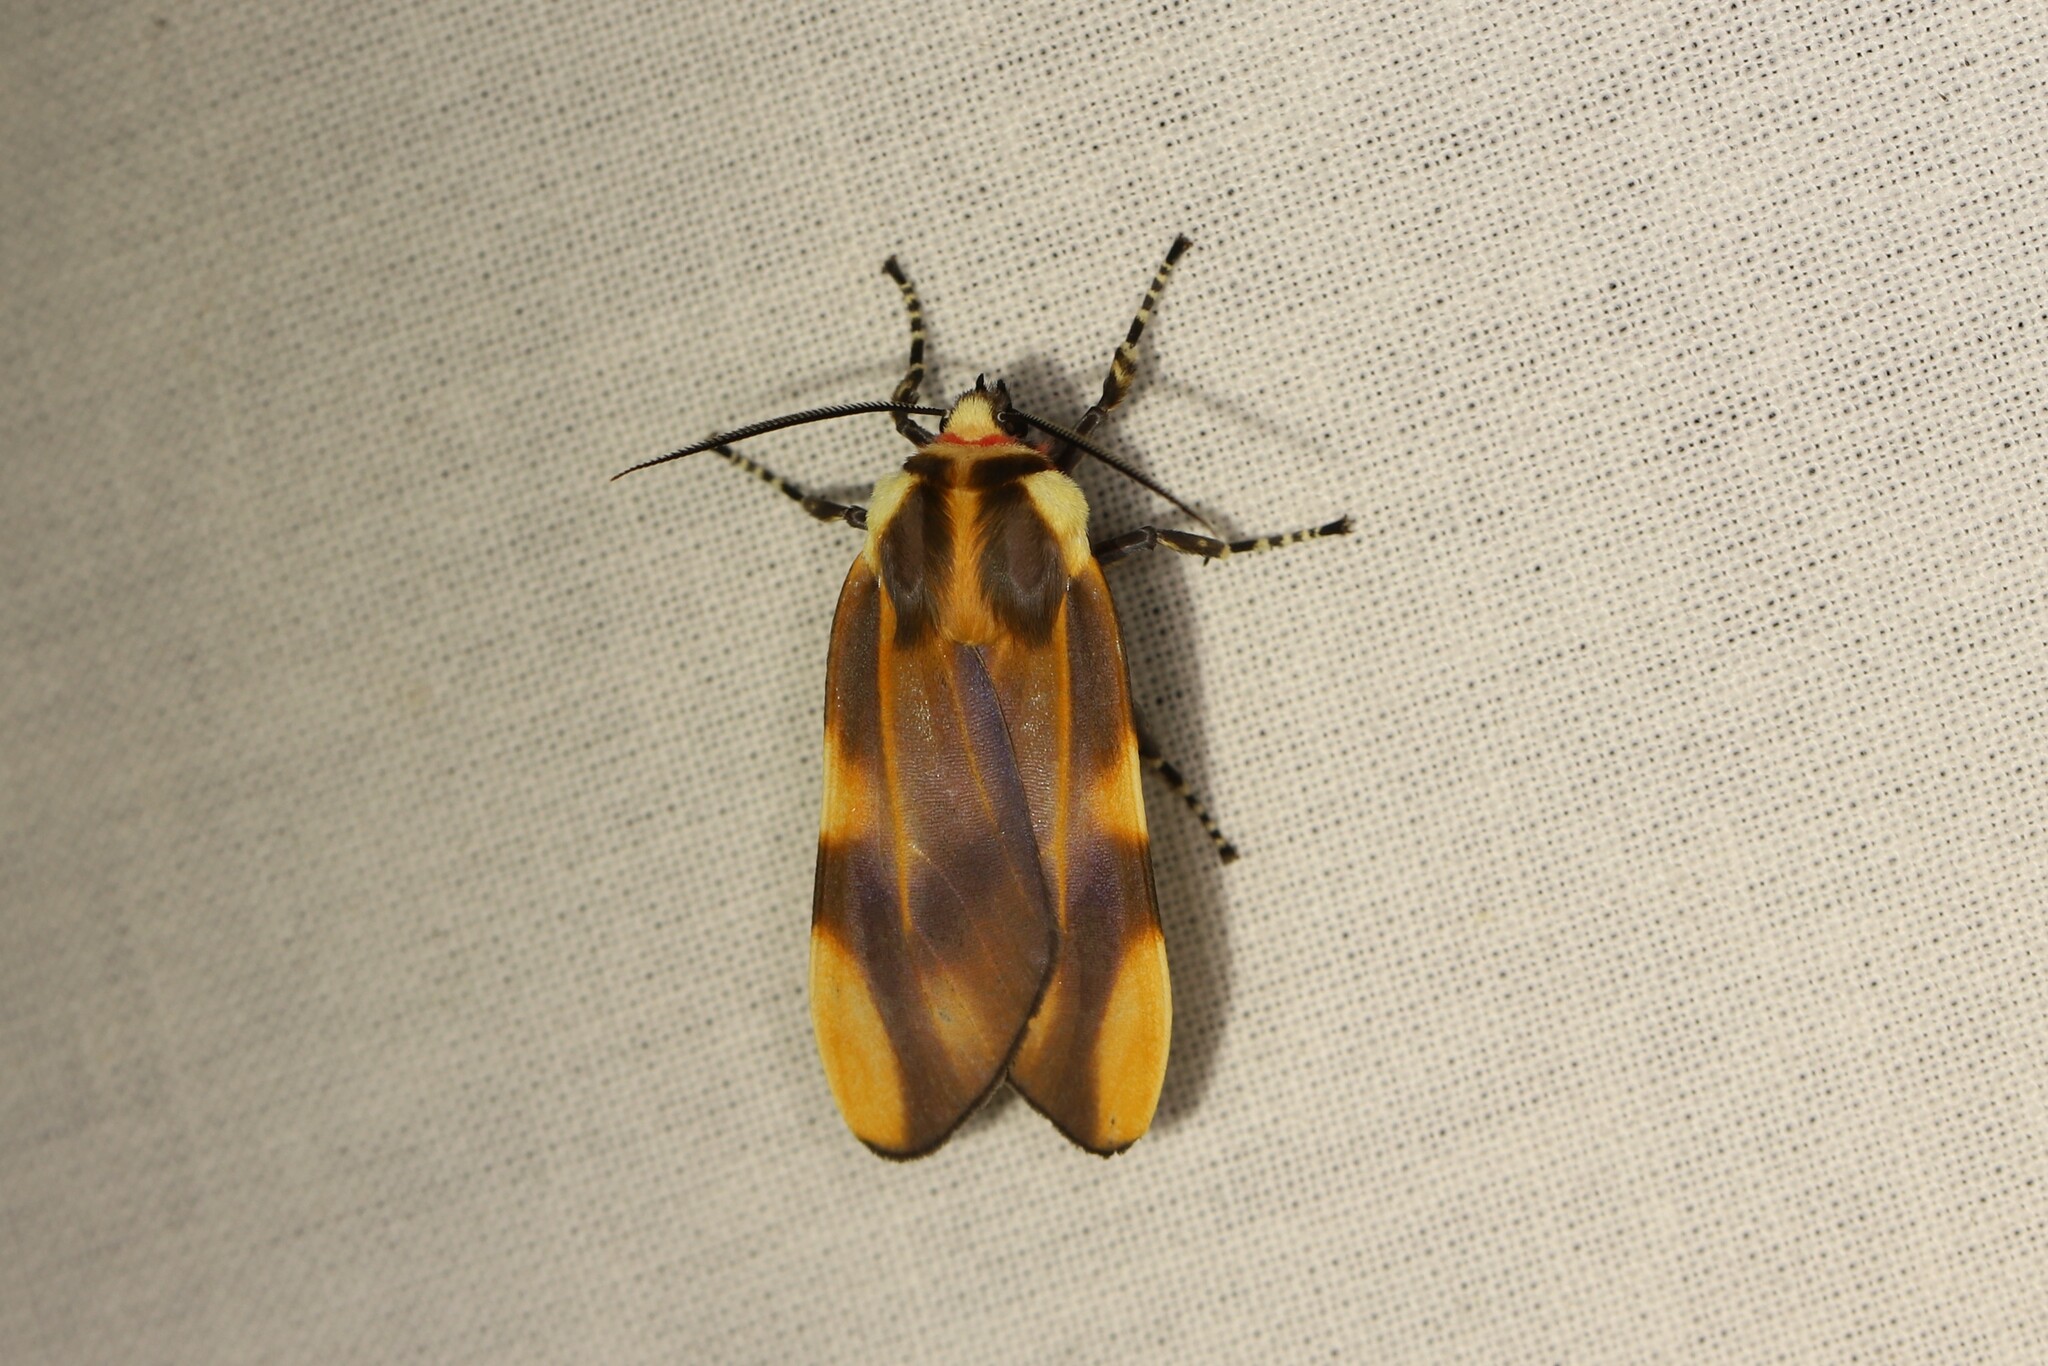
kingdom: Animalia
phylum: Arthropoda
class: Insecta
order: Lepidoptera
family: Erebidae
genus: Aemilia
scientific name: Aemilia crassa
